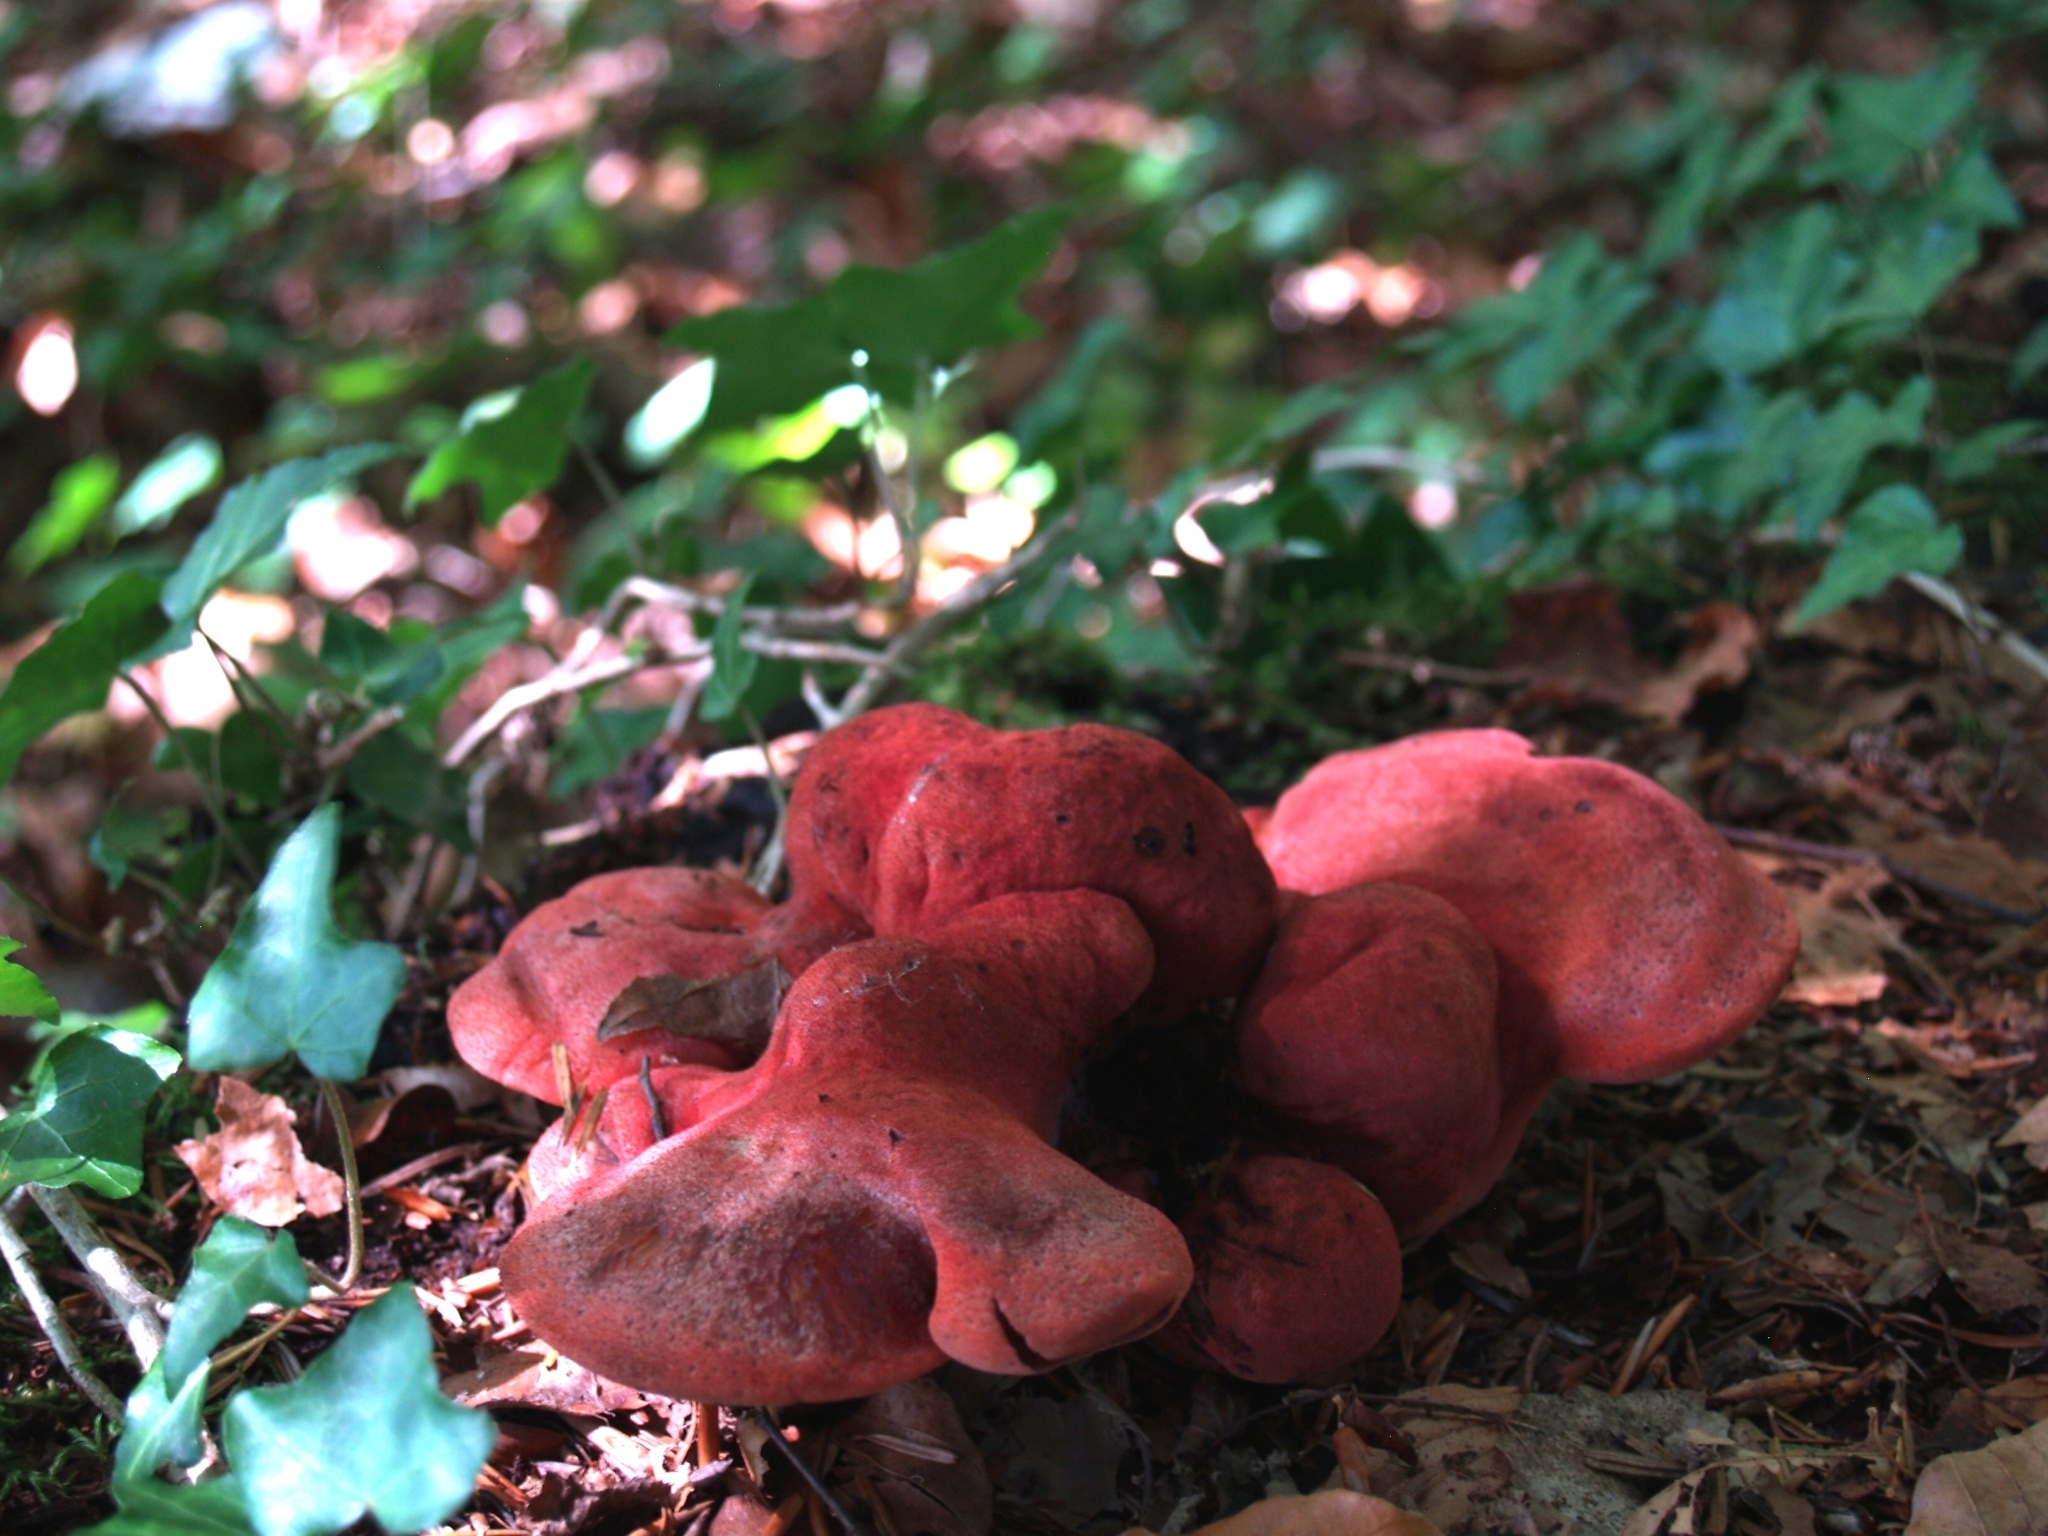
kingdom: Fungi
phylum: Basidiomycota
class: Agaricomycetes
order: Agaricales
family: Fistulinaceae
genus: Fistulina
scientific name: Fistulina hepatica
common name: Beef-steak fungus
